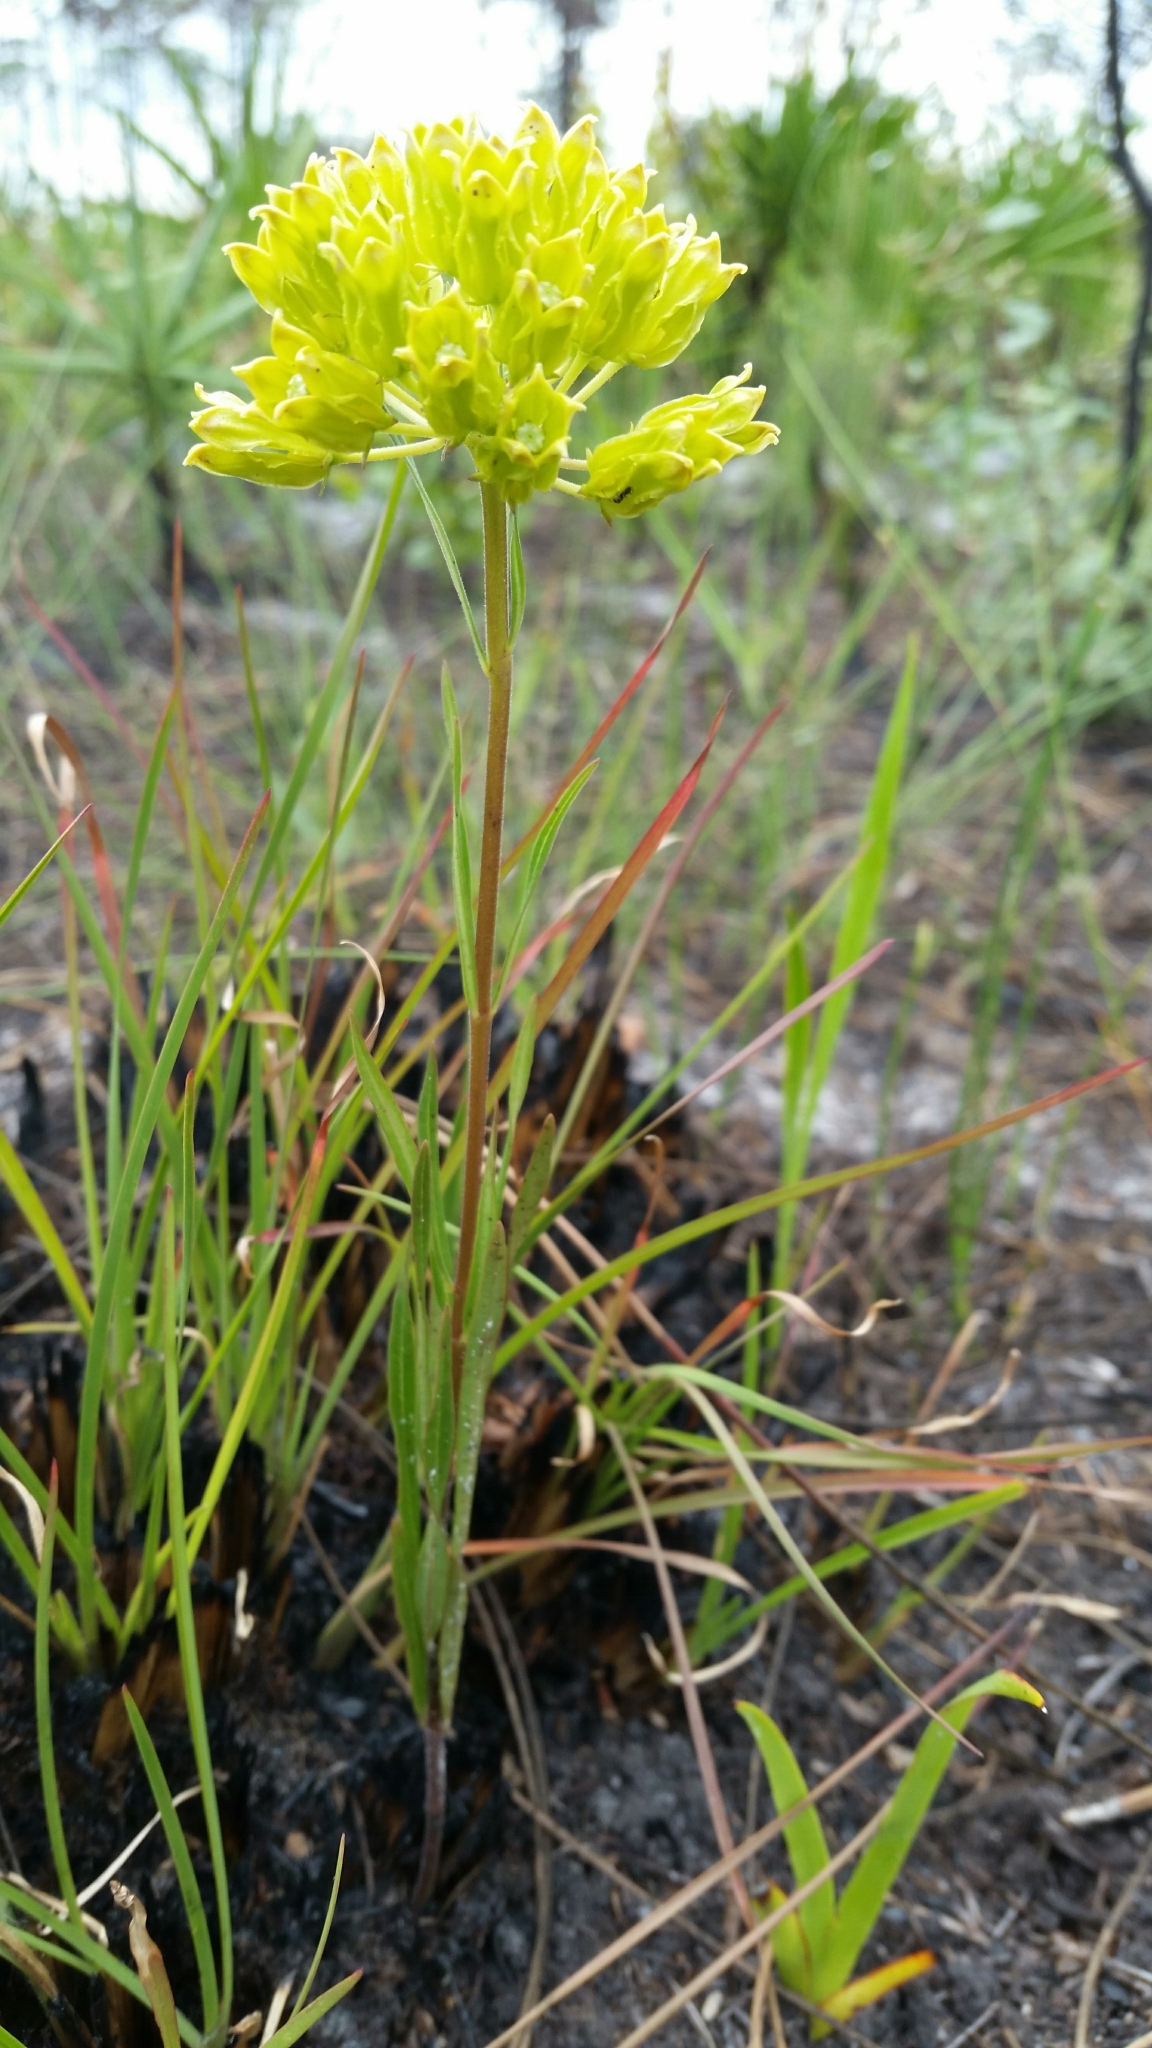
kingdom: Plantae
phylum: Tracheophyta
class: Magnoliopsida
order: Gentianales
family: Apocynaceae
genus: Asclepias
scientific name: Asclepias pedicellata
